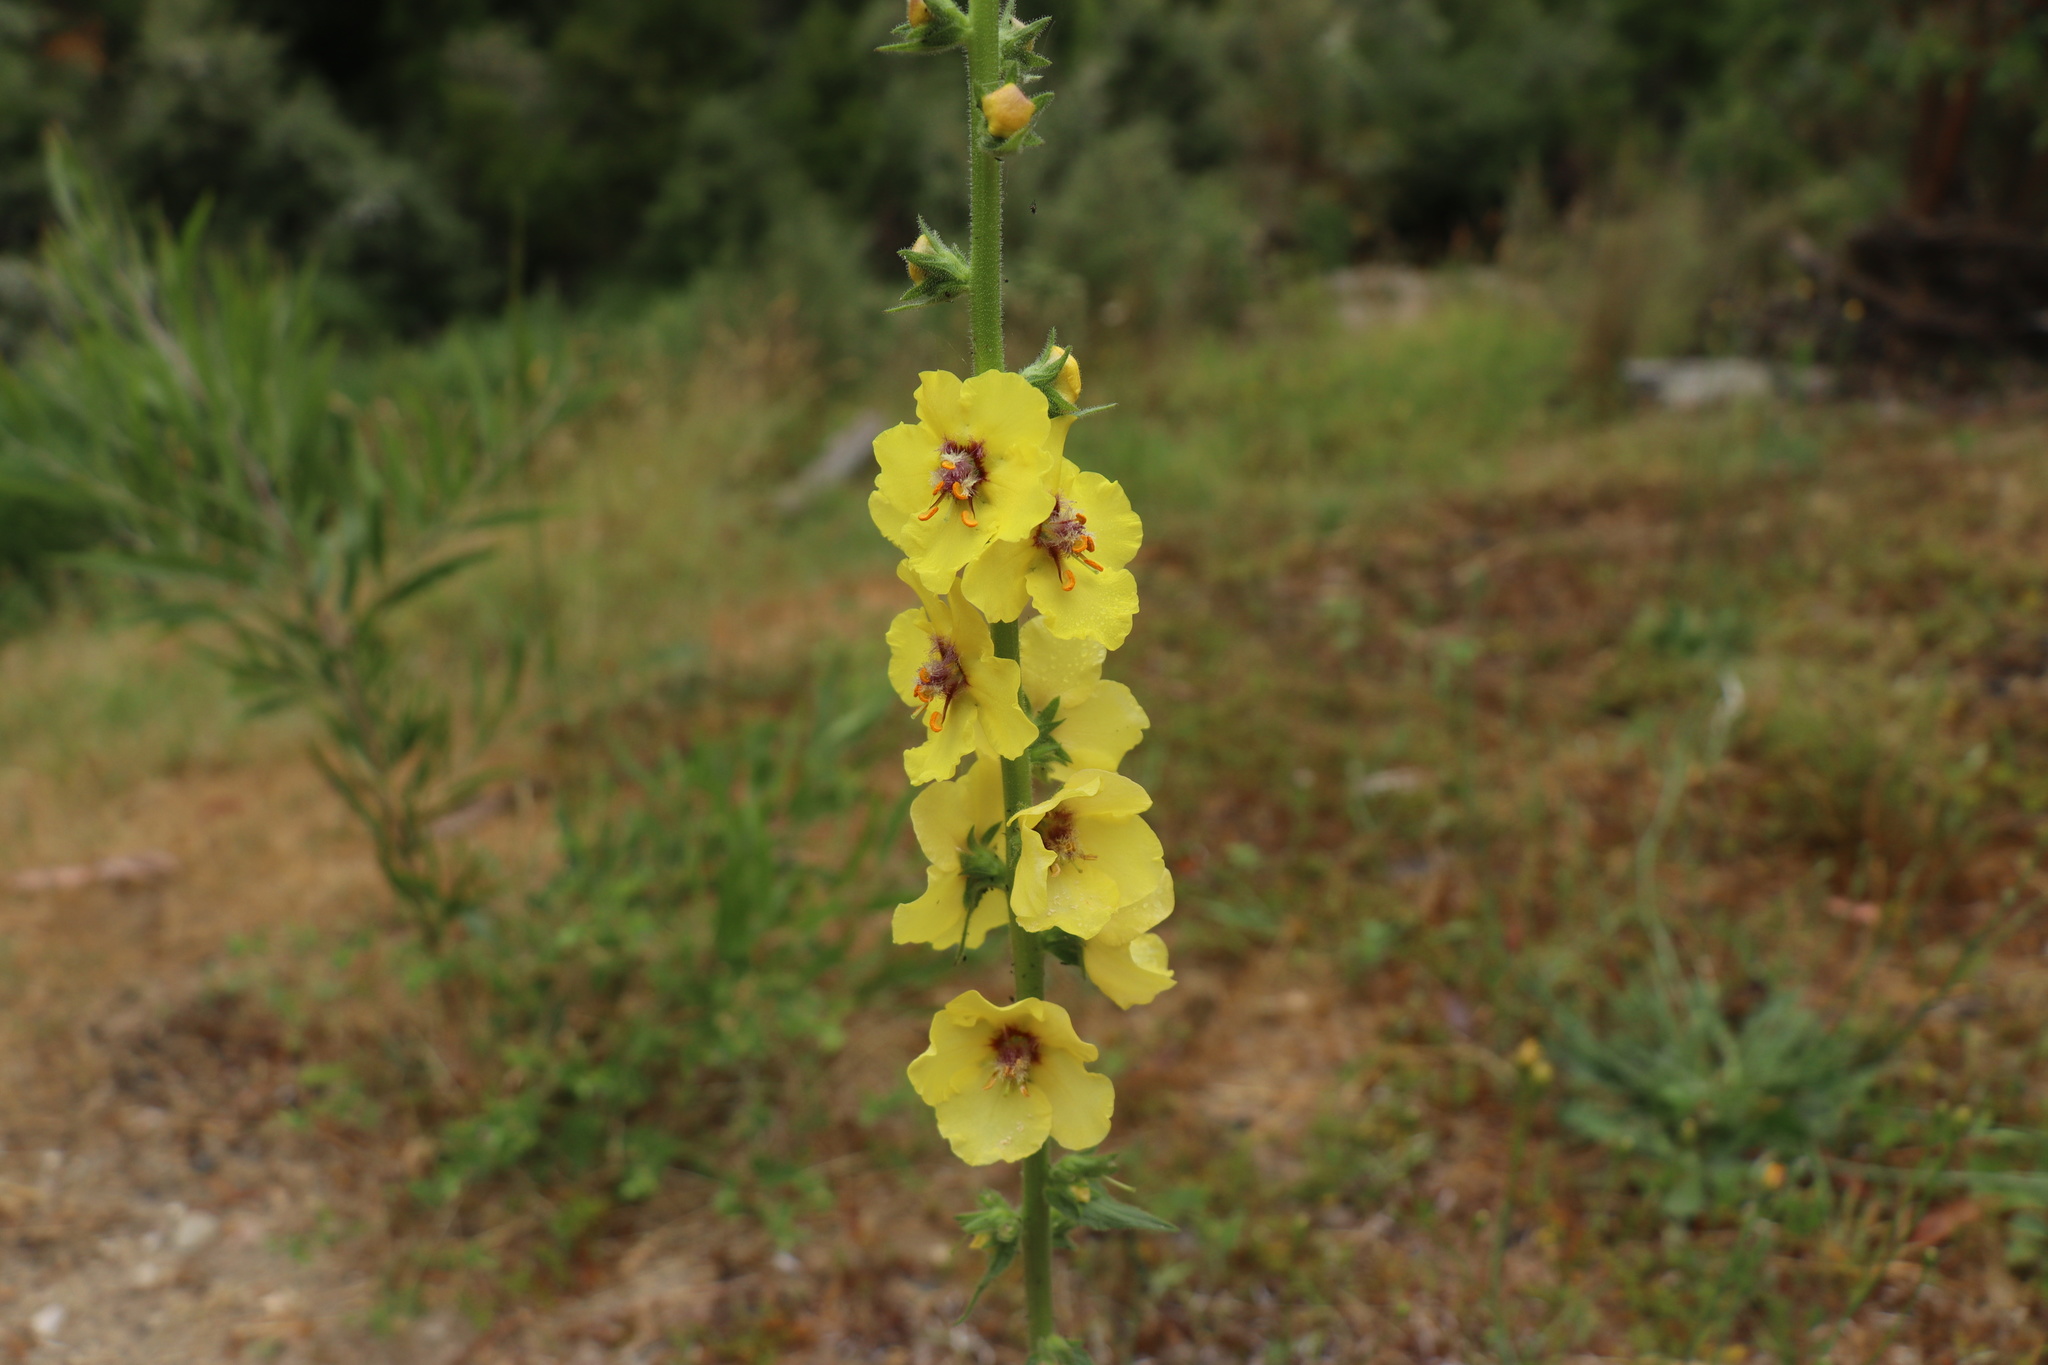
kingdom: Plantae
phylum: Tracheophyta
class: Magnoliopsida
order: Lamiales
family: Scrophulariaceae
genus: Verbascum
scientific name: Verbascum virgatum
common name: Twiggy mullein
